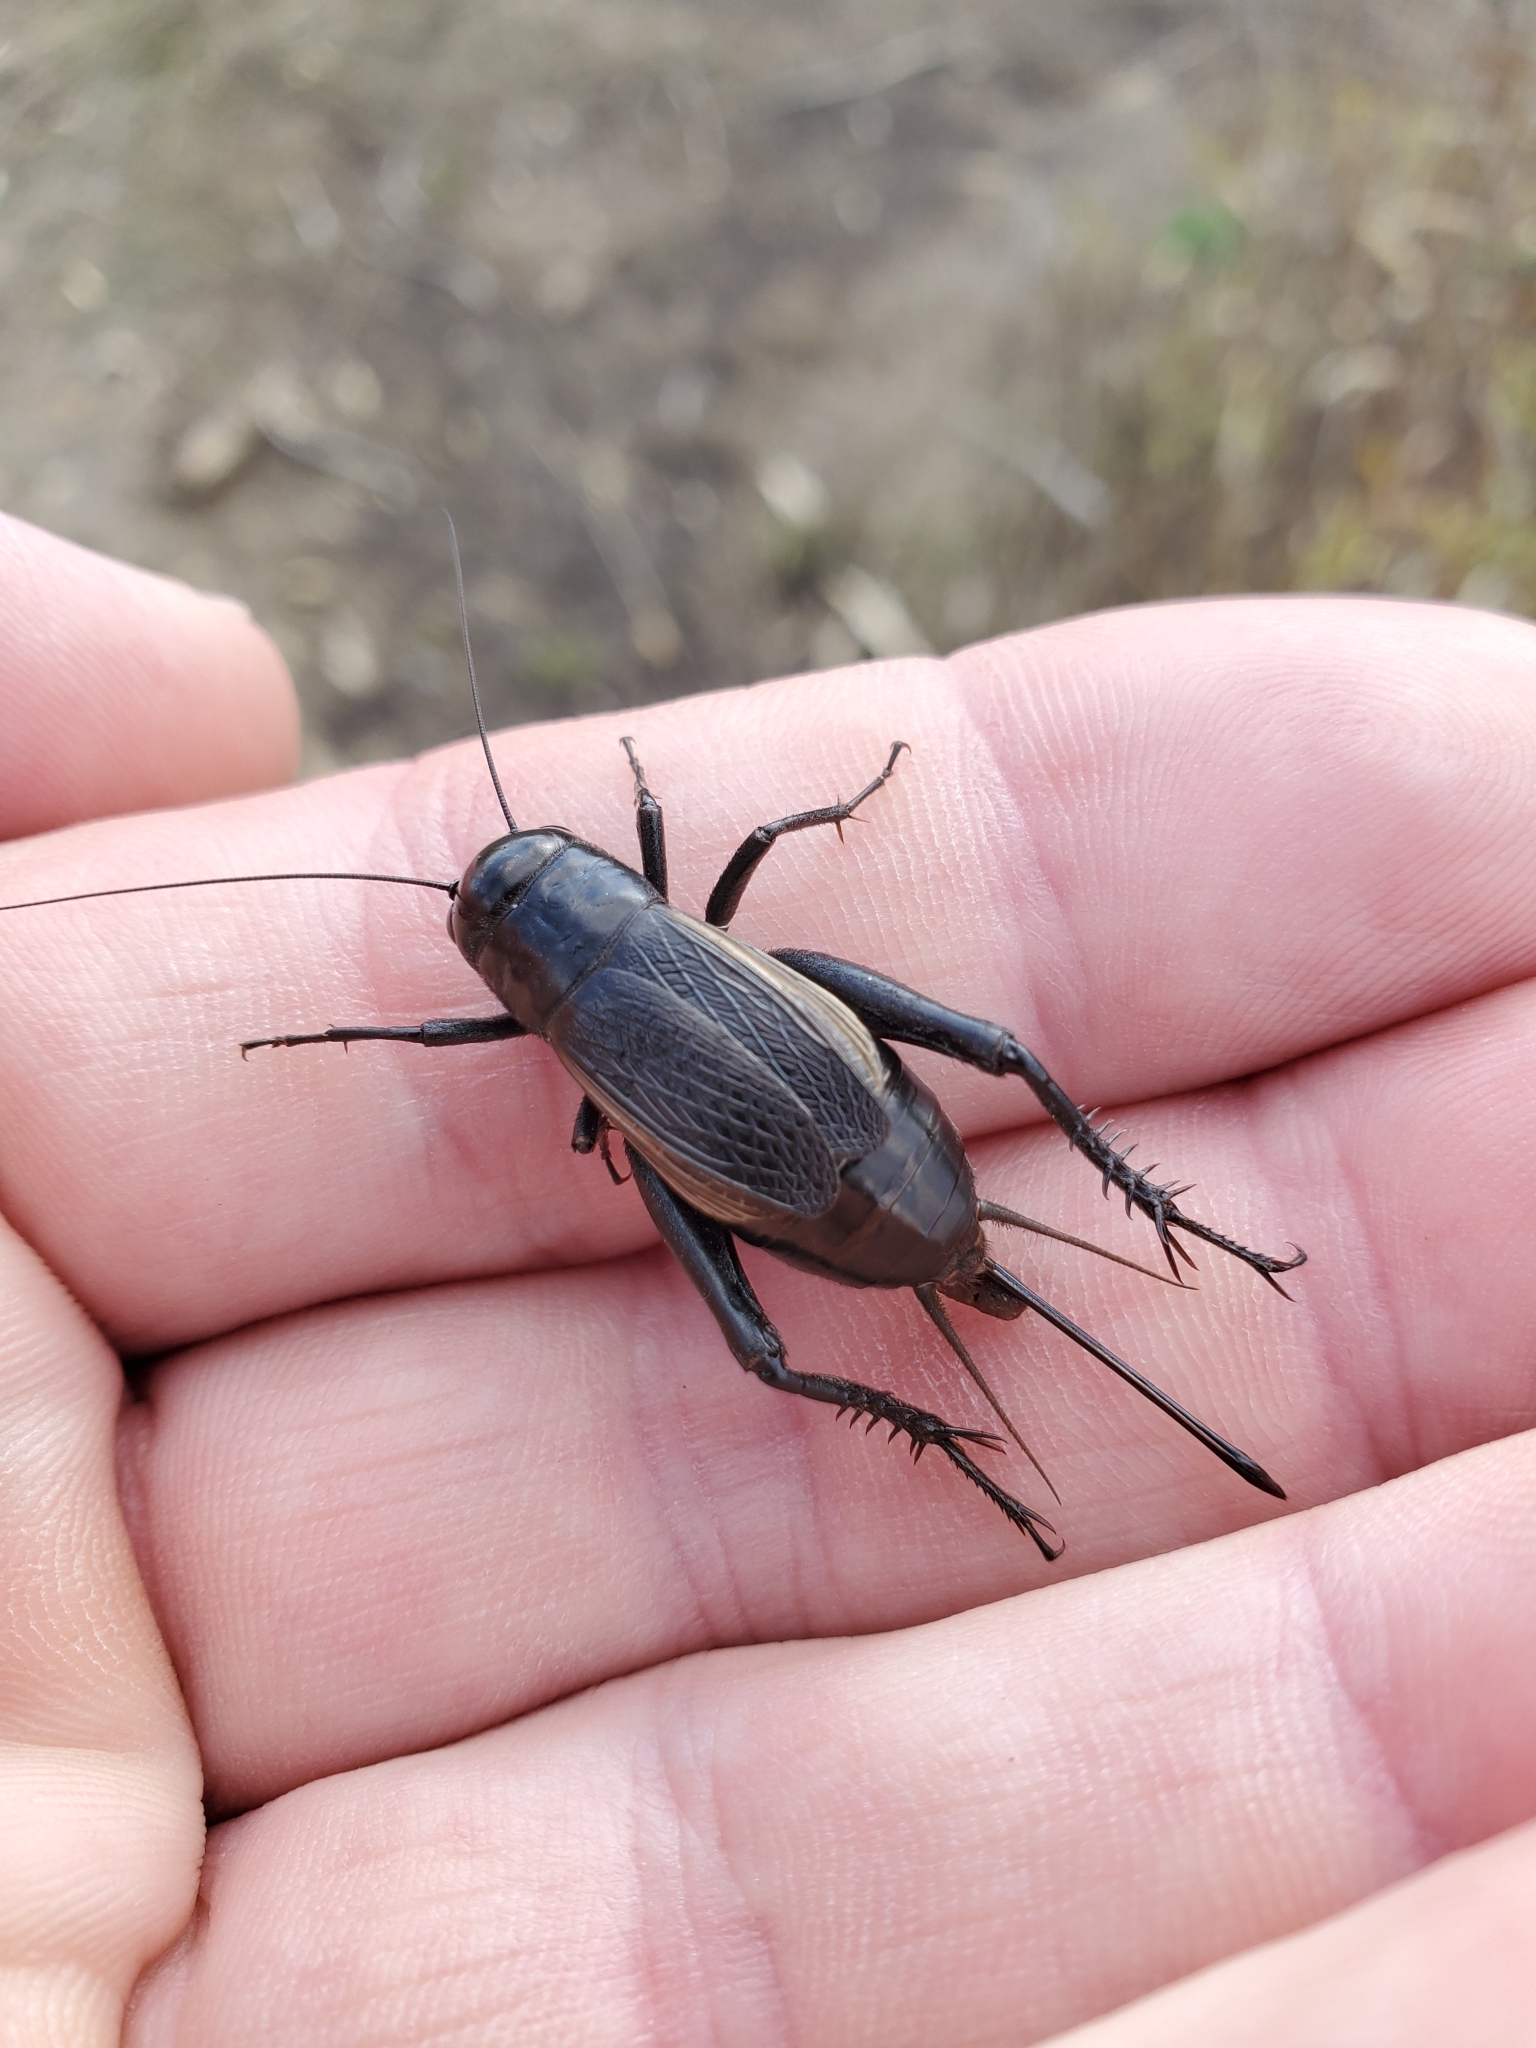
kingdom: Animalia
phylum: Arthropoda
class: Insecta
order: Orthoptera
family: Gryllidae
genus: Gryllus
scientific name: Gryllus pennsylvanicus
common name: Fall field cricket
